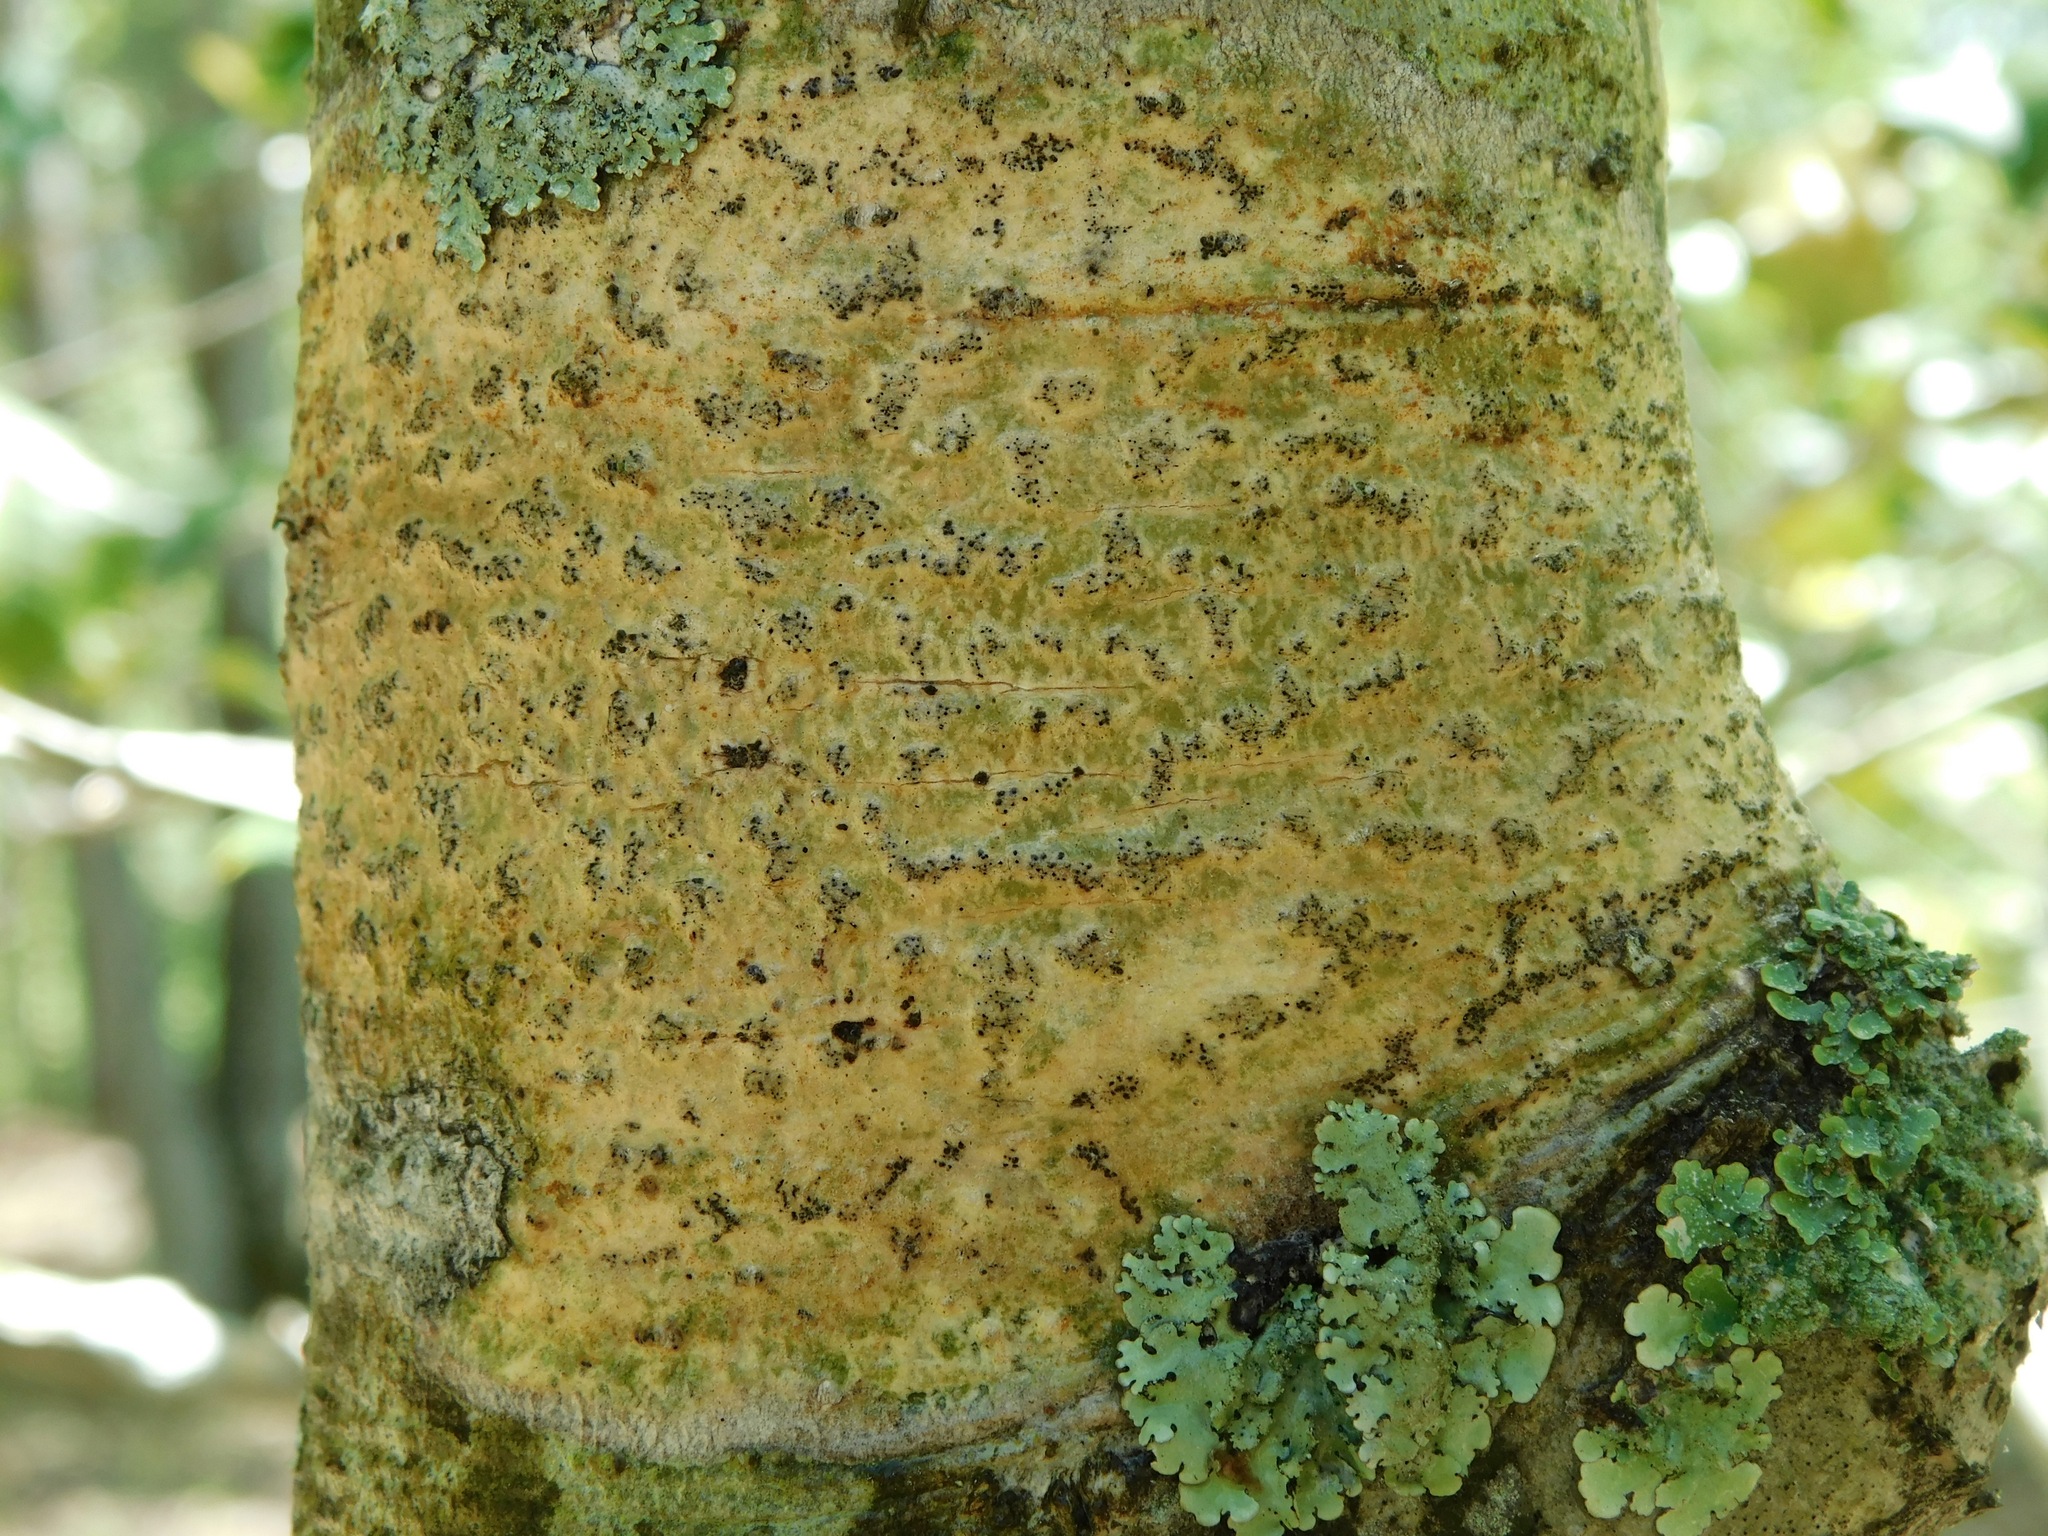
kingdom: Fungi
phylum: Ascomycota
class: Dothideomycetes
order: Trypetheliales
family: Trypetheliaceae
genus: Viridothelium
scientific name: Viridothelium virens
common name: Speckled blister lichen
